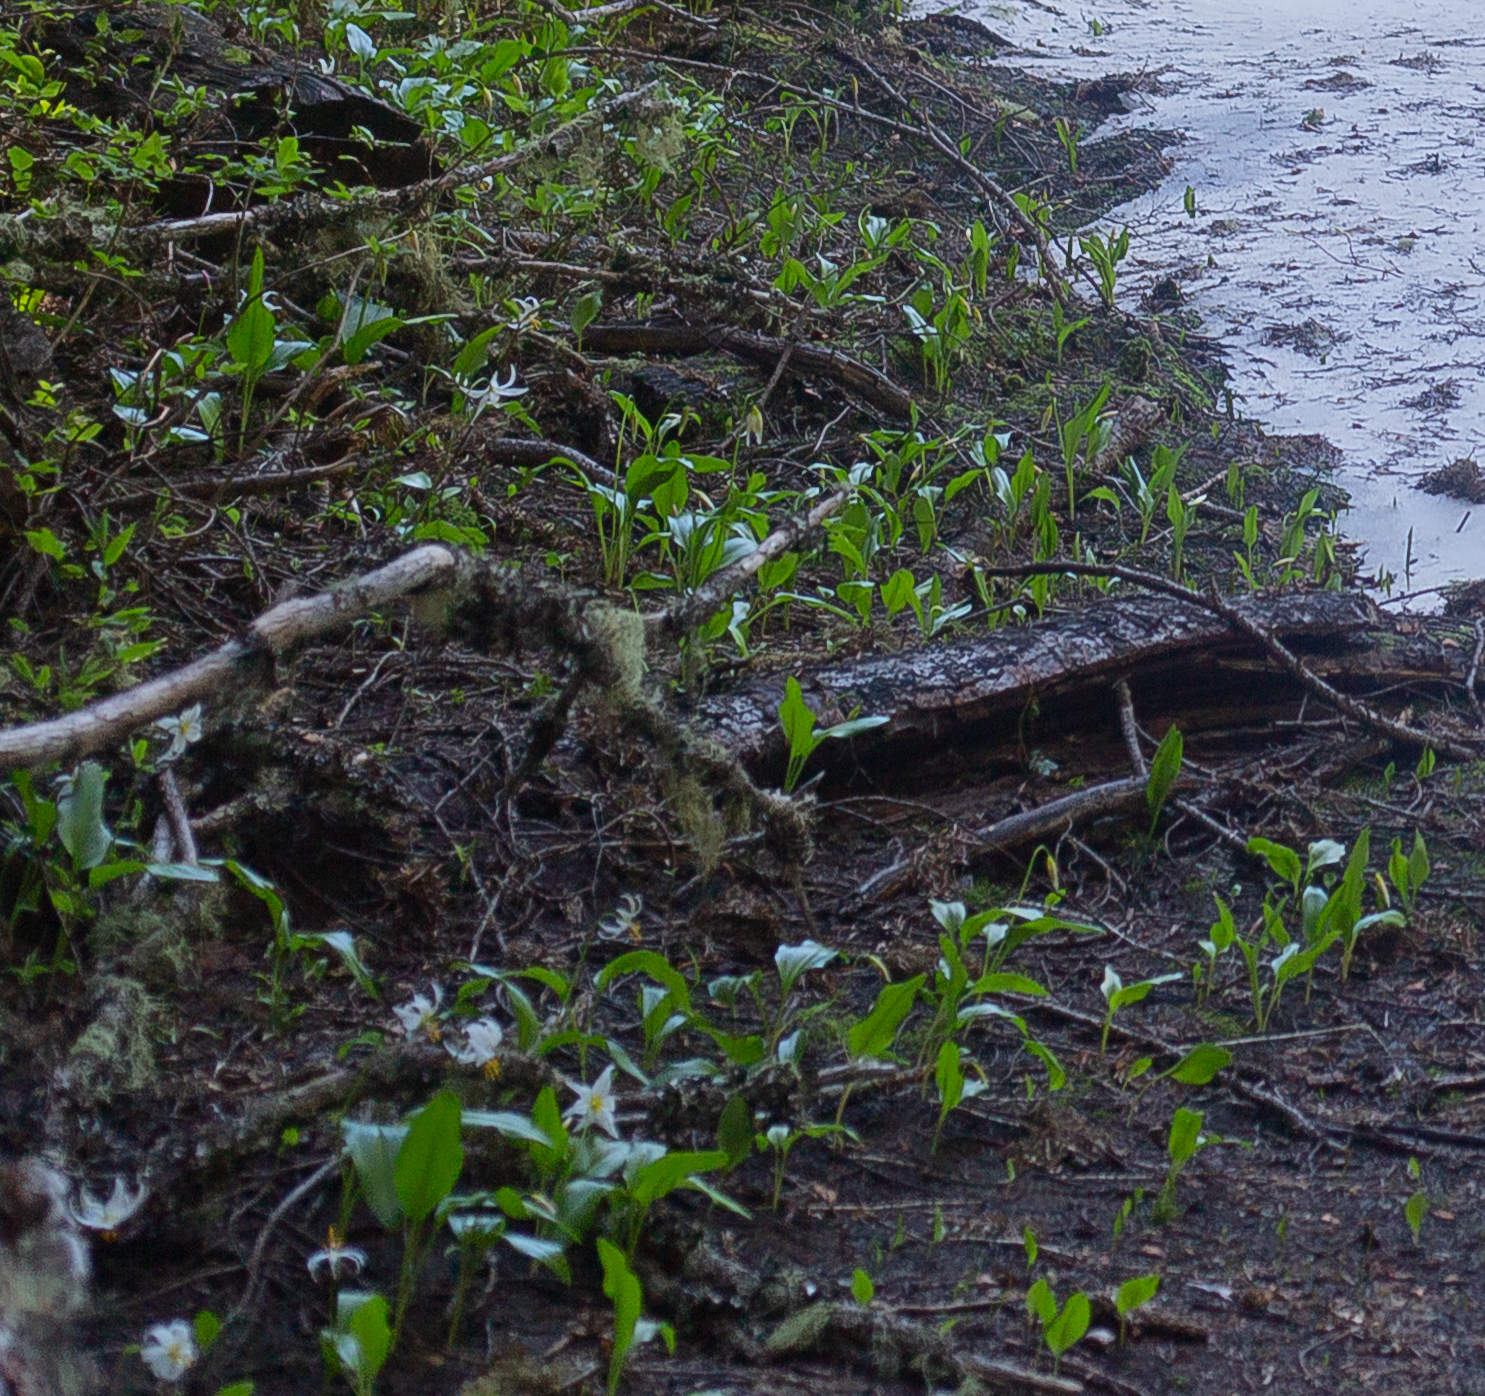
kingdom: Plantae
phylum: Tracheophyta
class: Liliopsida
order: Liliales
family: Liliaceae
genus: Erythronium
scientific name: Erythronium montanum
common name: Avalanche lily
